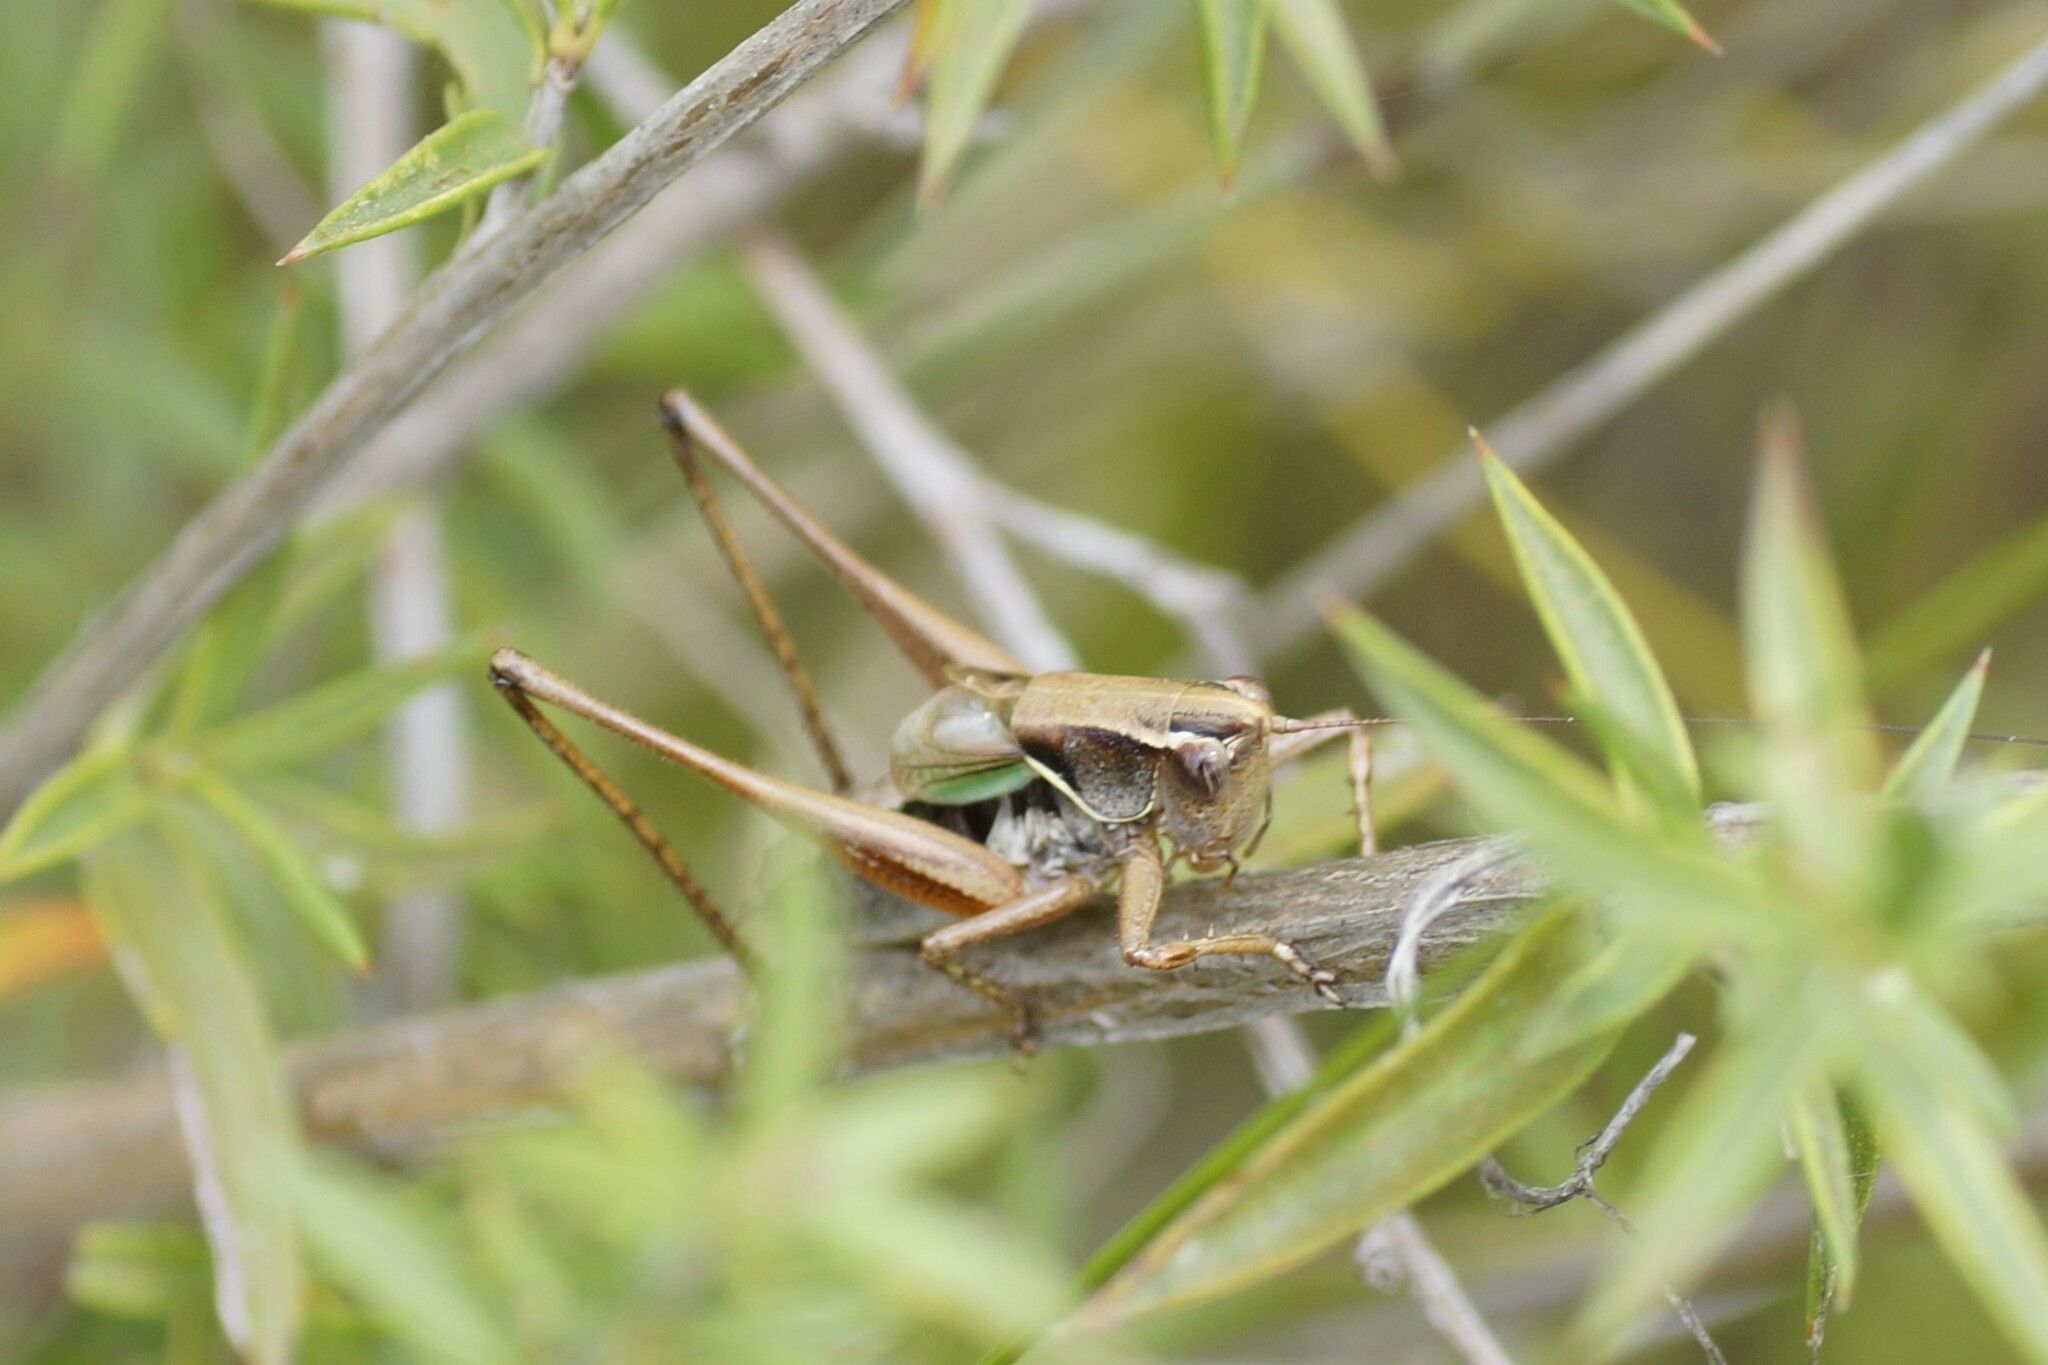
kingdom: Animalia
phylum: Arthropoda
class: Insecta
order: Orthoptera
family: Tettigoniidae
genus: Nanodectes
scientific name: Nanodectes veprephila
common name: Heath-dwelling shield-back
